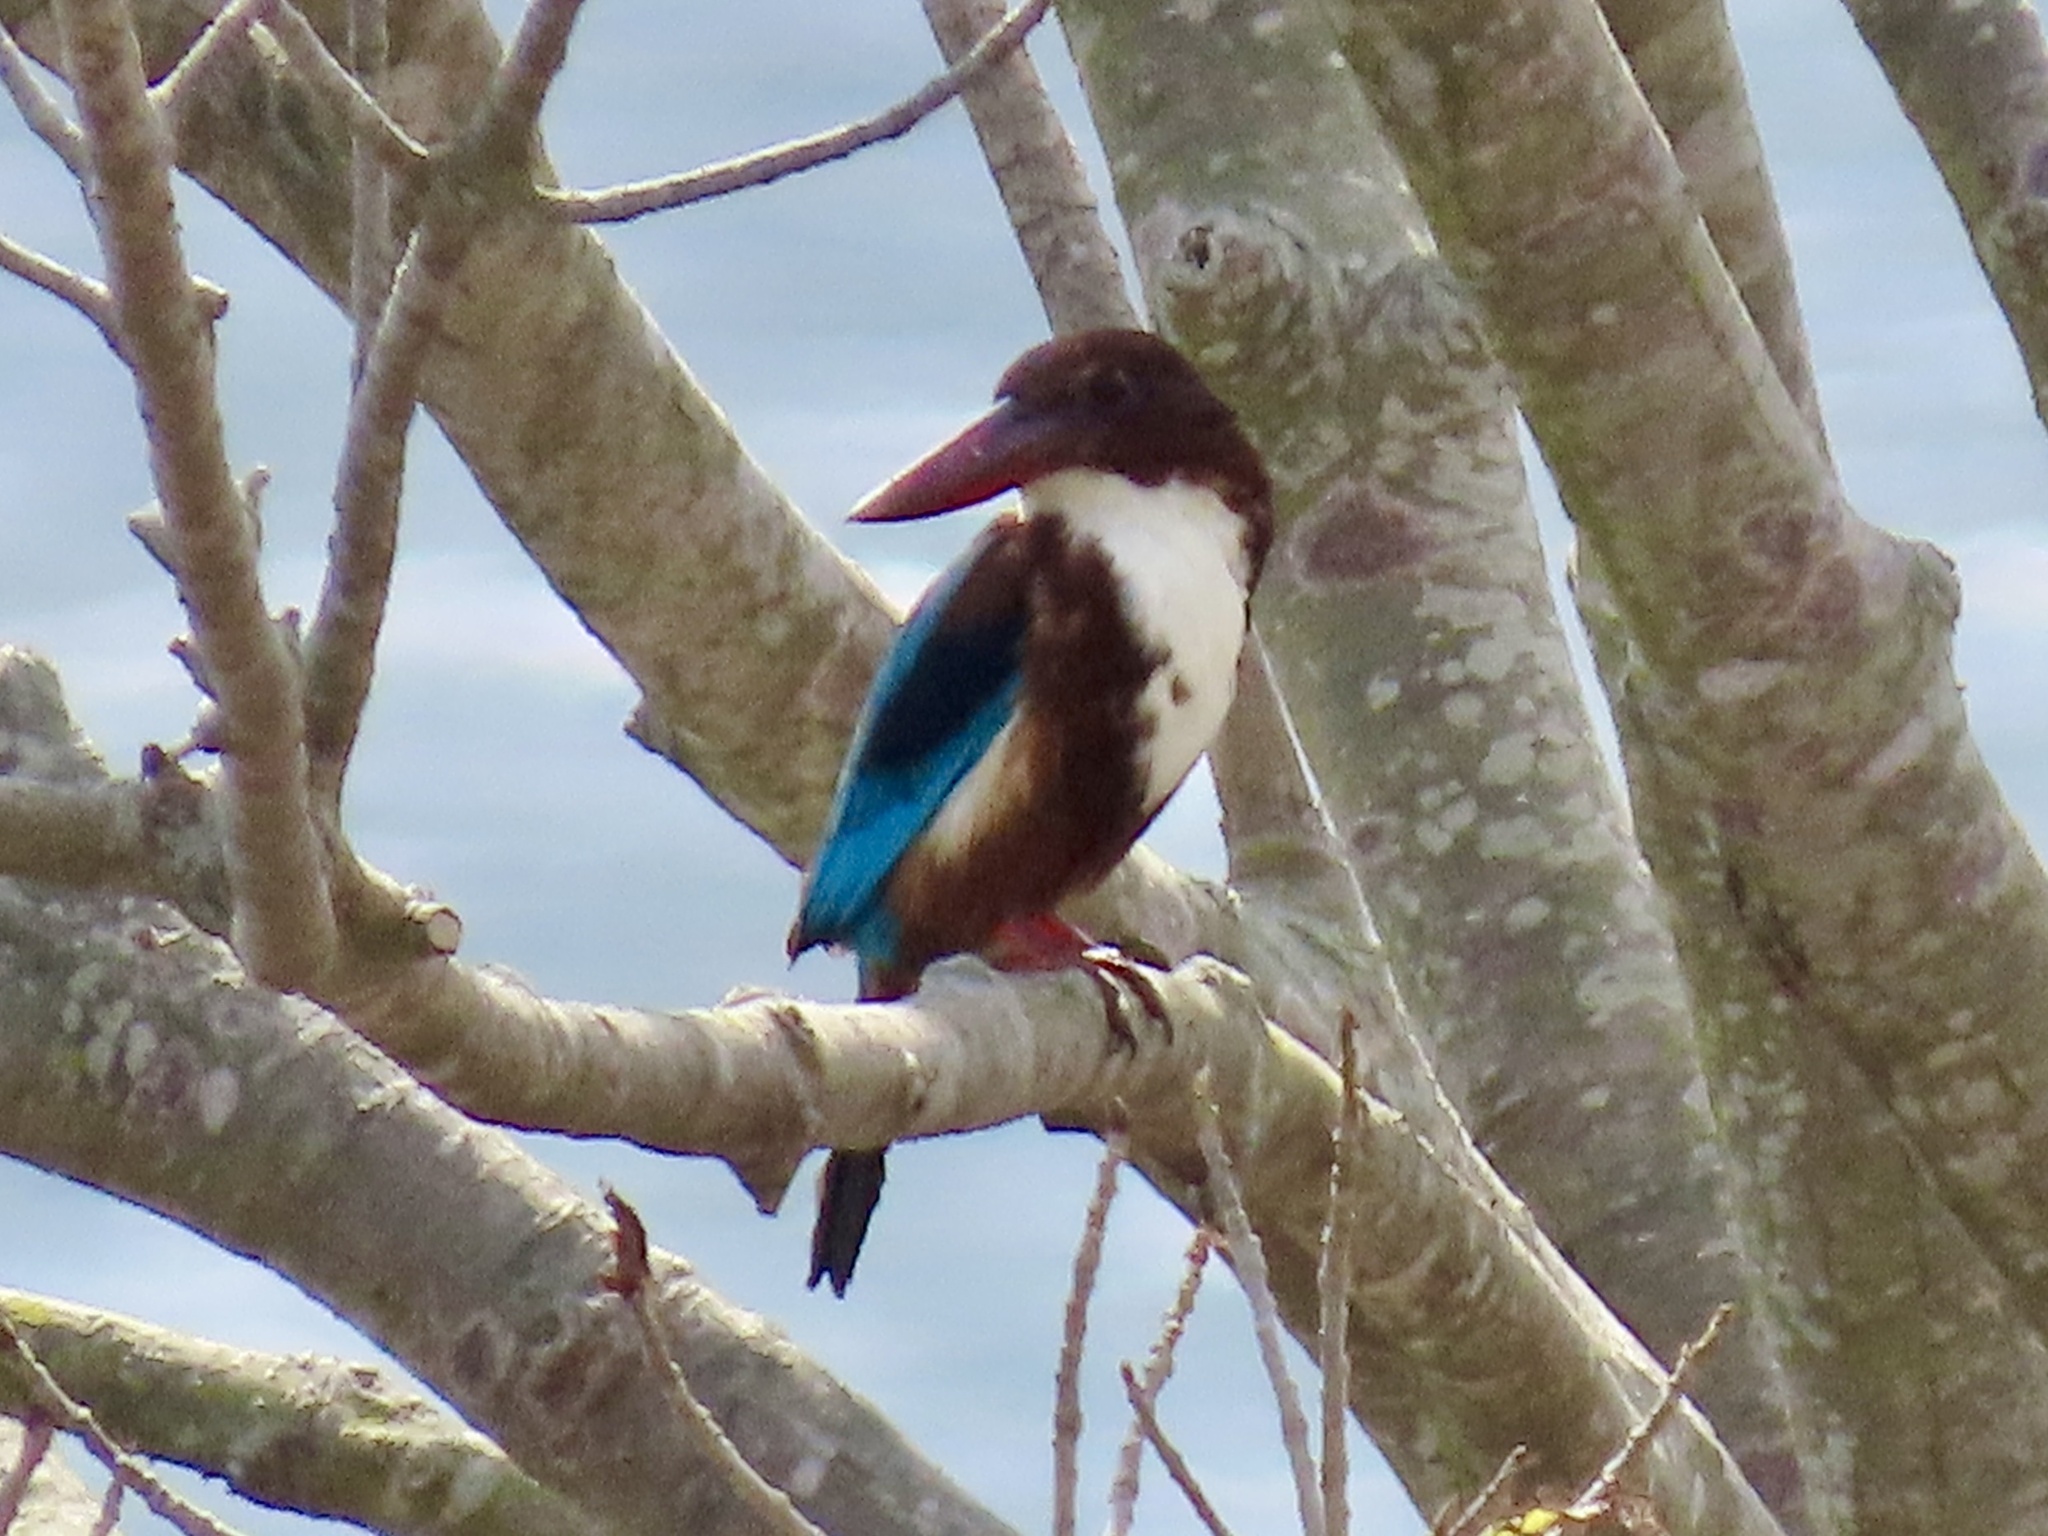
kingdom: Animalia
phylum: Chordata
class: Aves
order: Coraciiformes
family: Alcedinidae
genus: Halcyon
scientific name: Halcyon smyrnensis
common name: White-throated kingfisher
